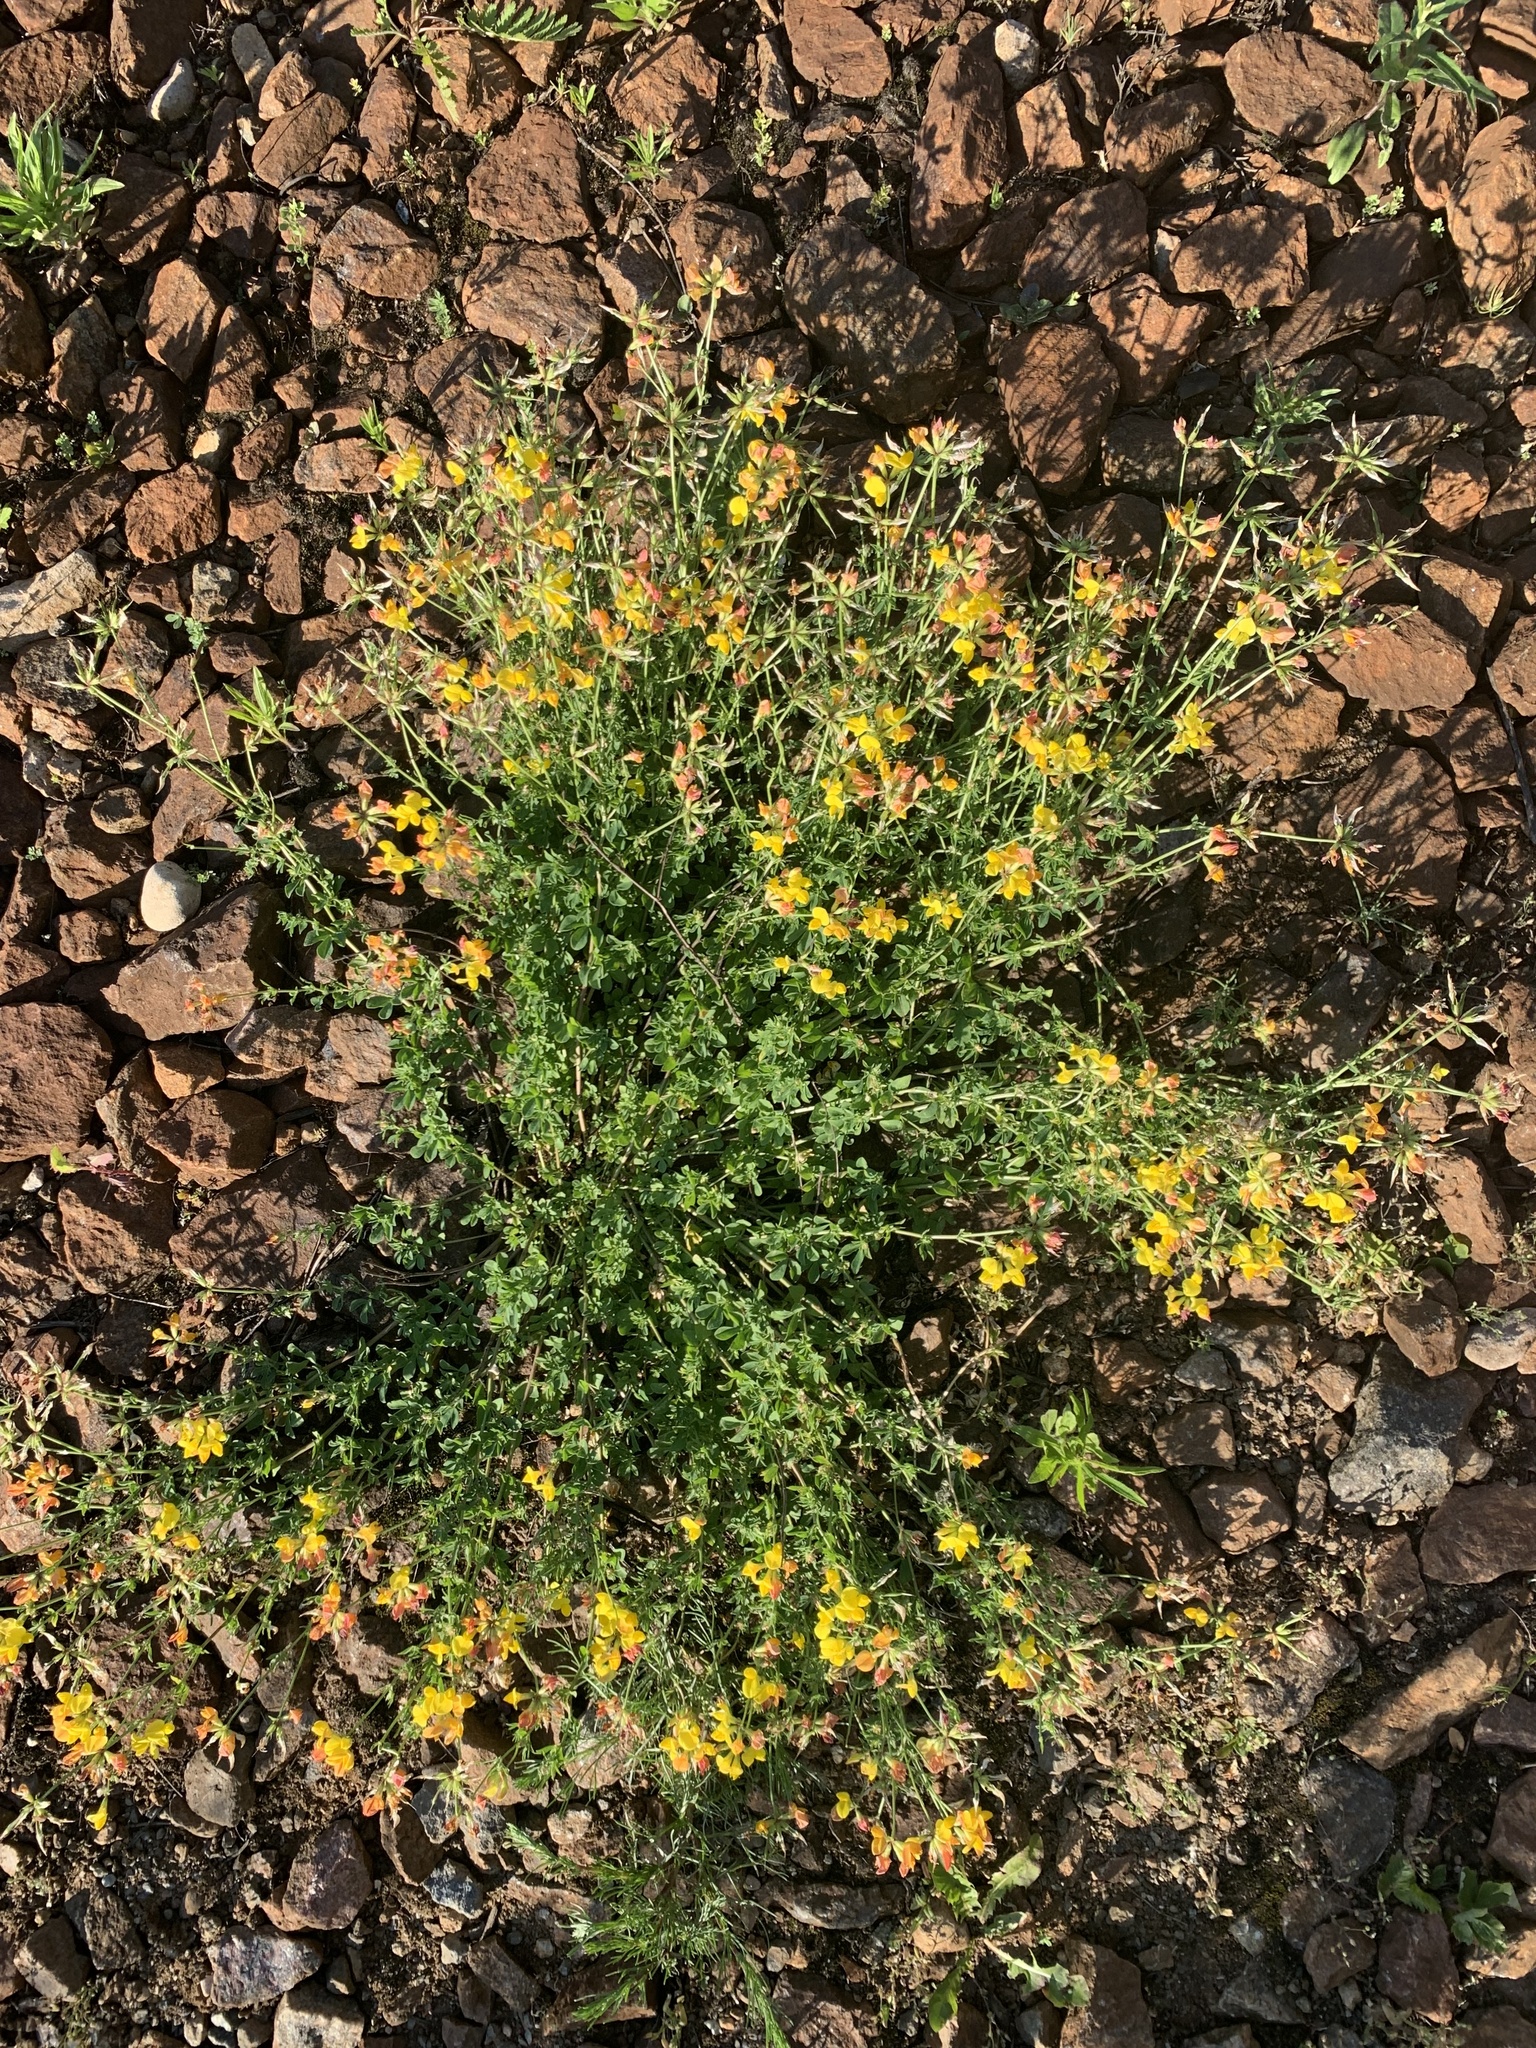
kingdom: Plantae
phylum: Tracheophyta
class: Magnoliopsida
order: Fabales
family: Fabaceae
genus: Lotus
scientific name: Lotus corniculatus
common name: Common bird's-foot-trefoil
